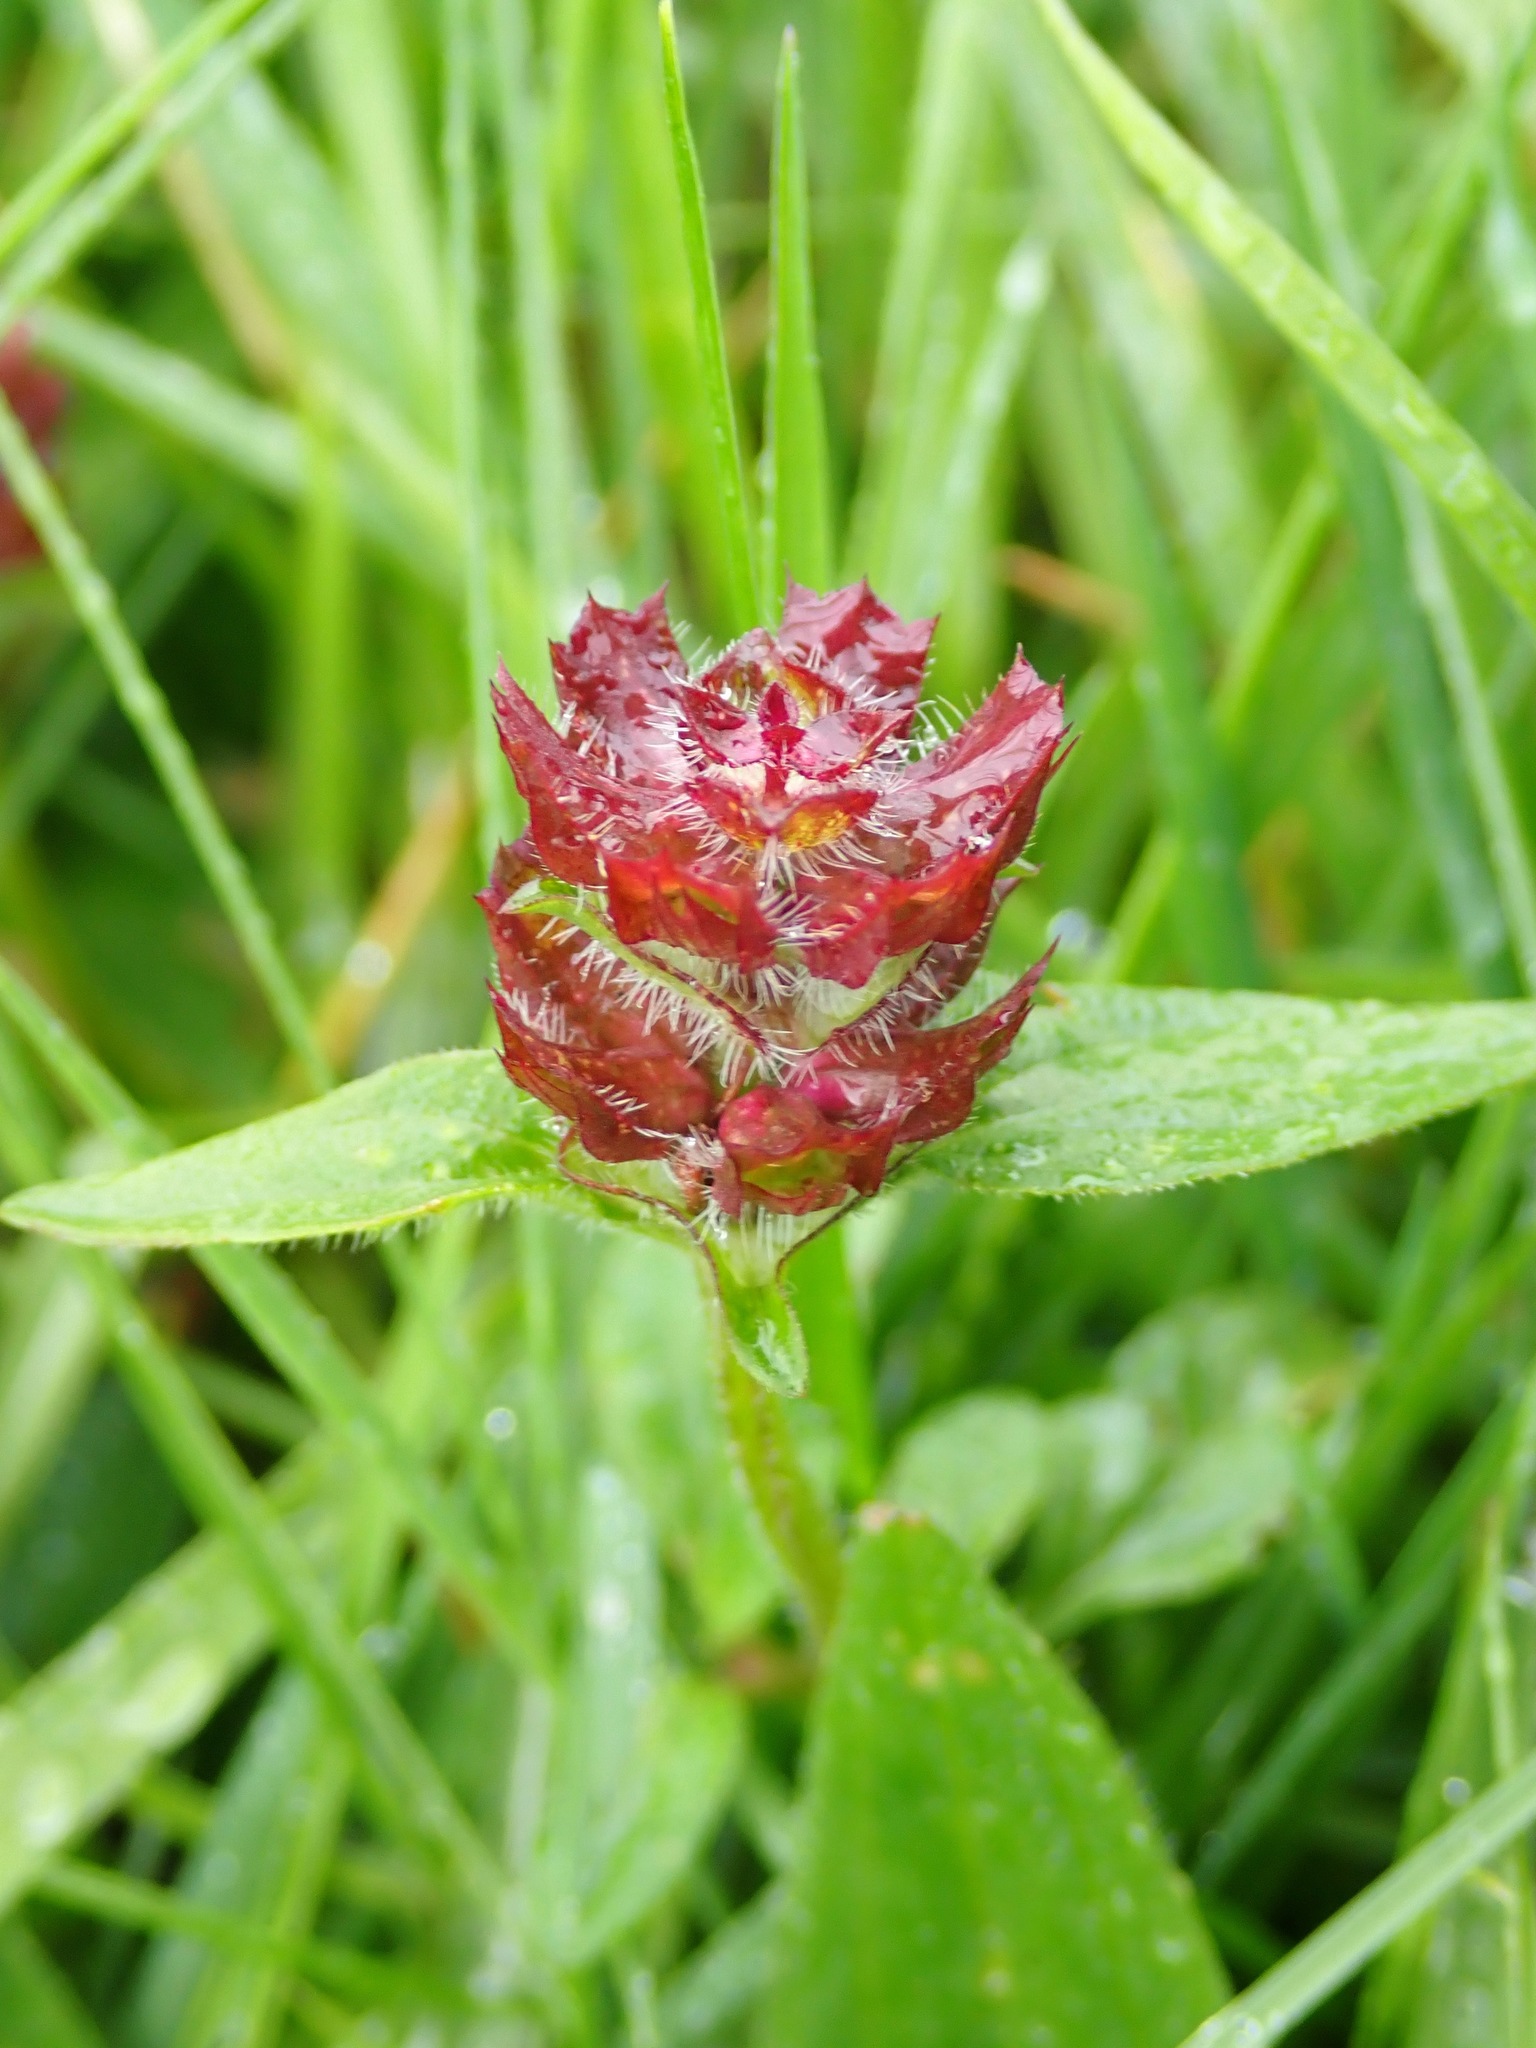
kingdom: Plantae
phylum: Tracheophyta
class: Magnoliopsida
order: Lamiales
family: Lamiaceae
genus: Prunella
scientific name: Prunella vulgaris
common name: Heal-all
